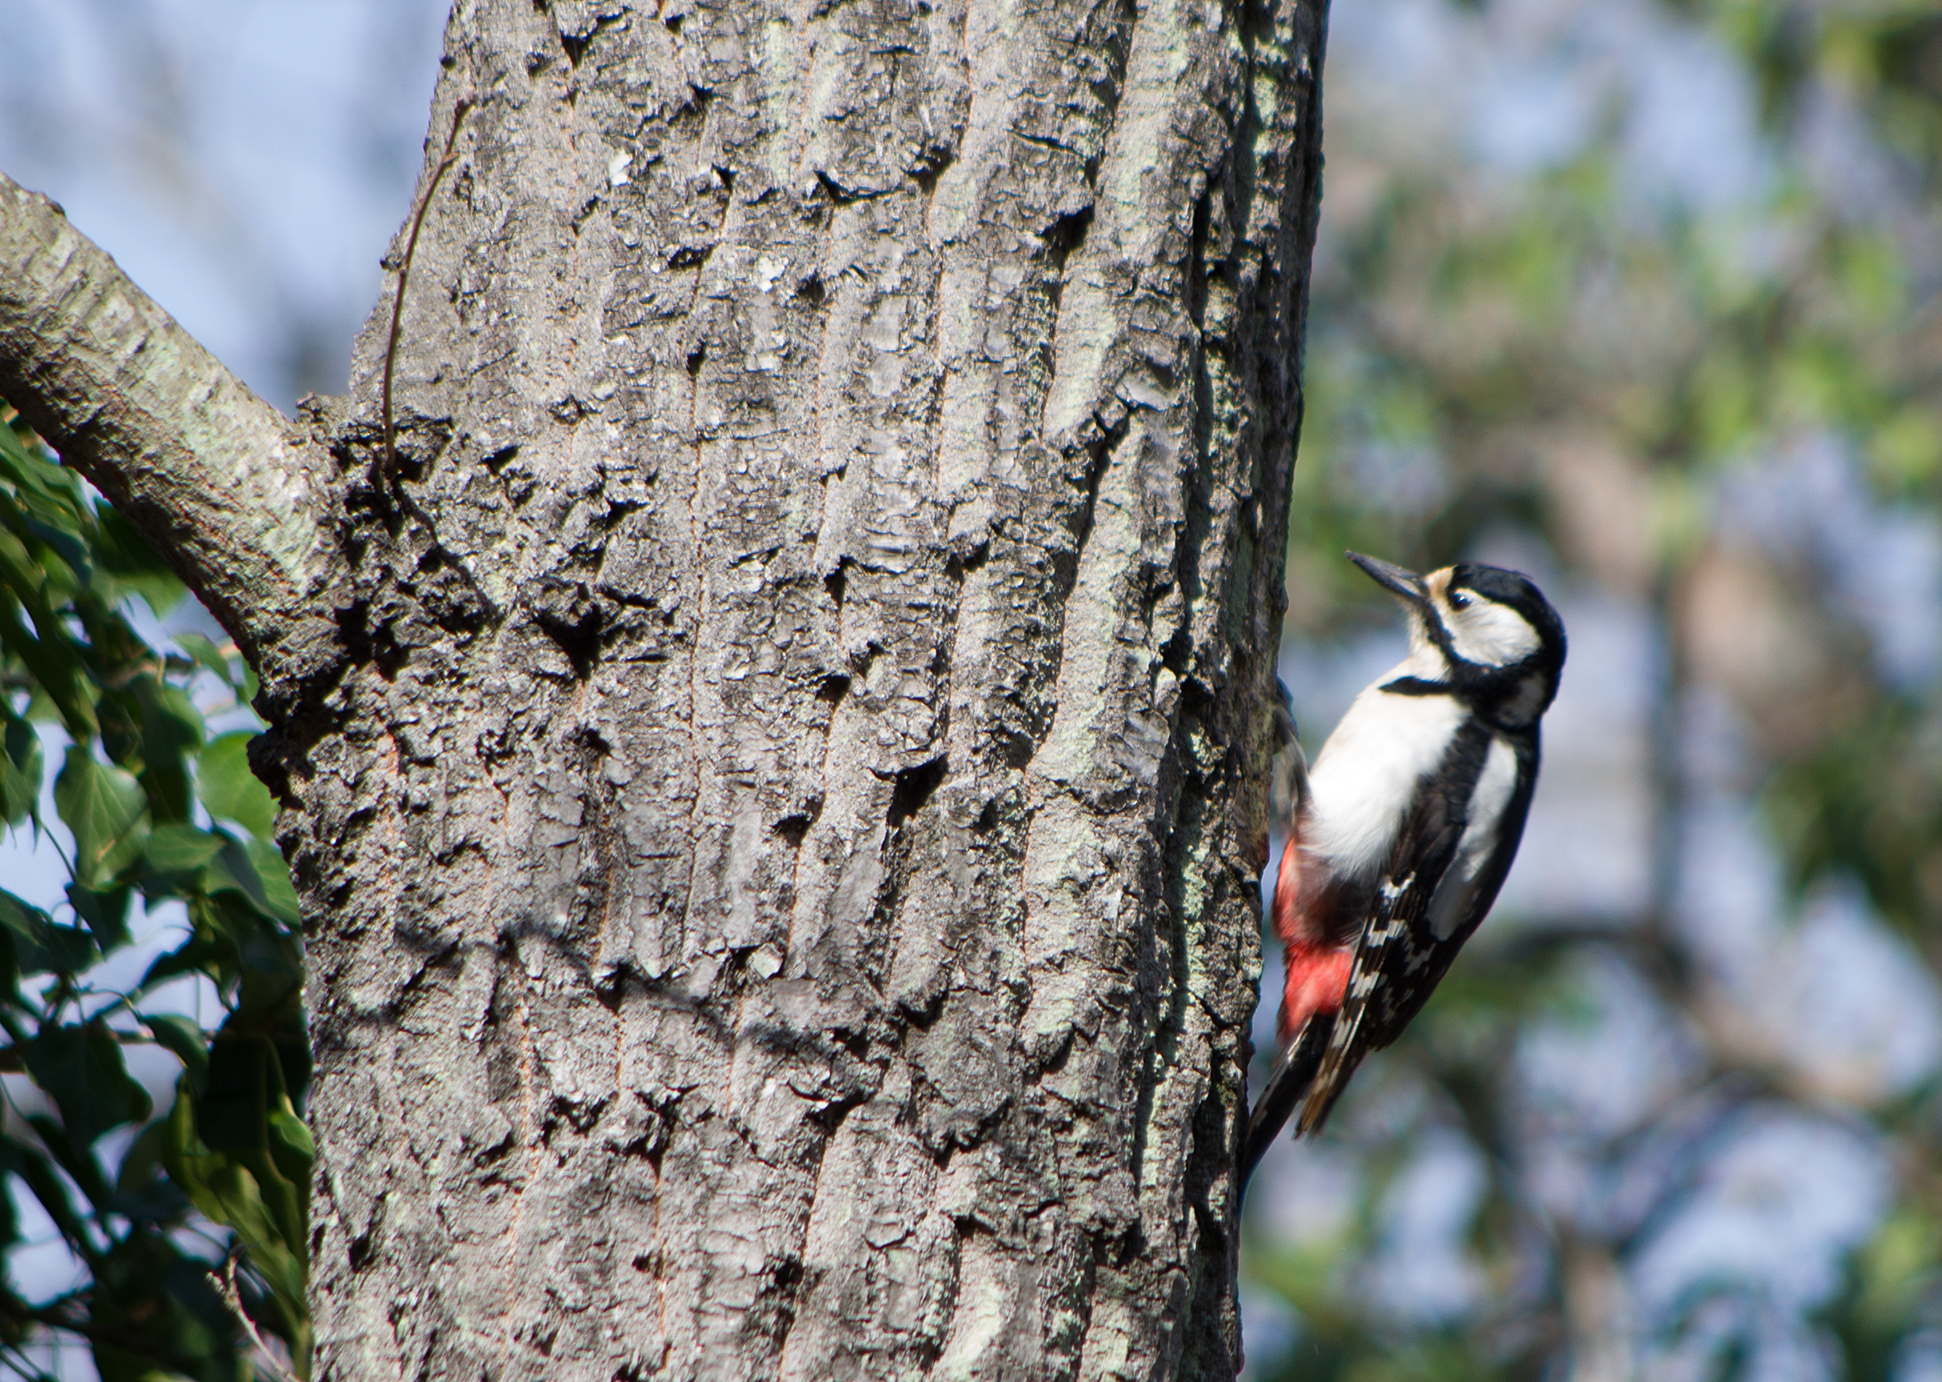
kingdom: Animalia
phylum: Chordata
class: Aves
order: Piciformes
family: Picidae
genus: Dendrocopos
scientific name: Dendrocopos major
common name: Great spotted woodpecker
